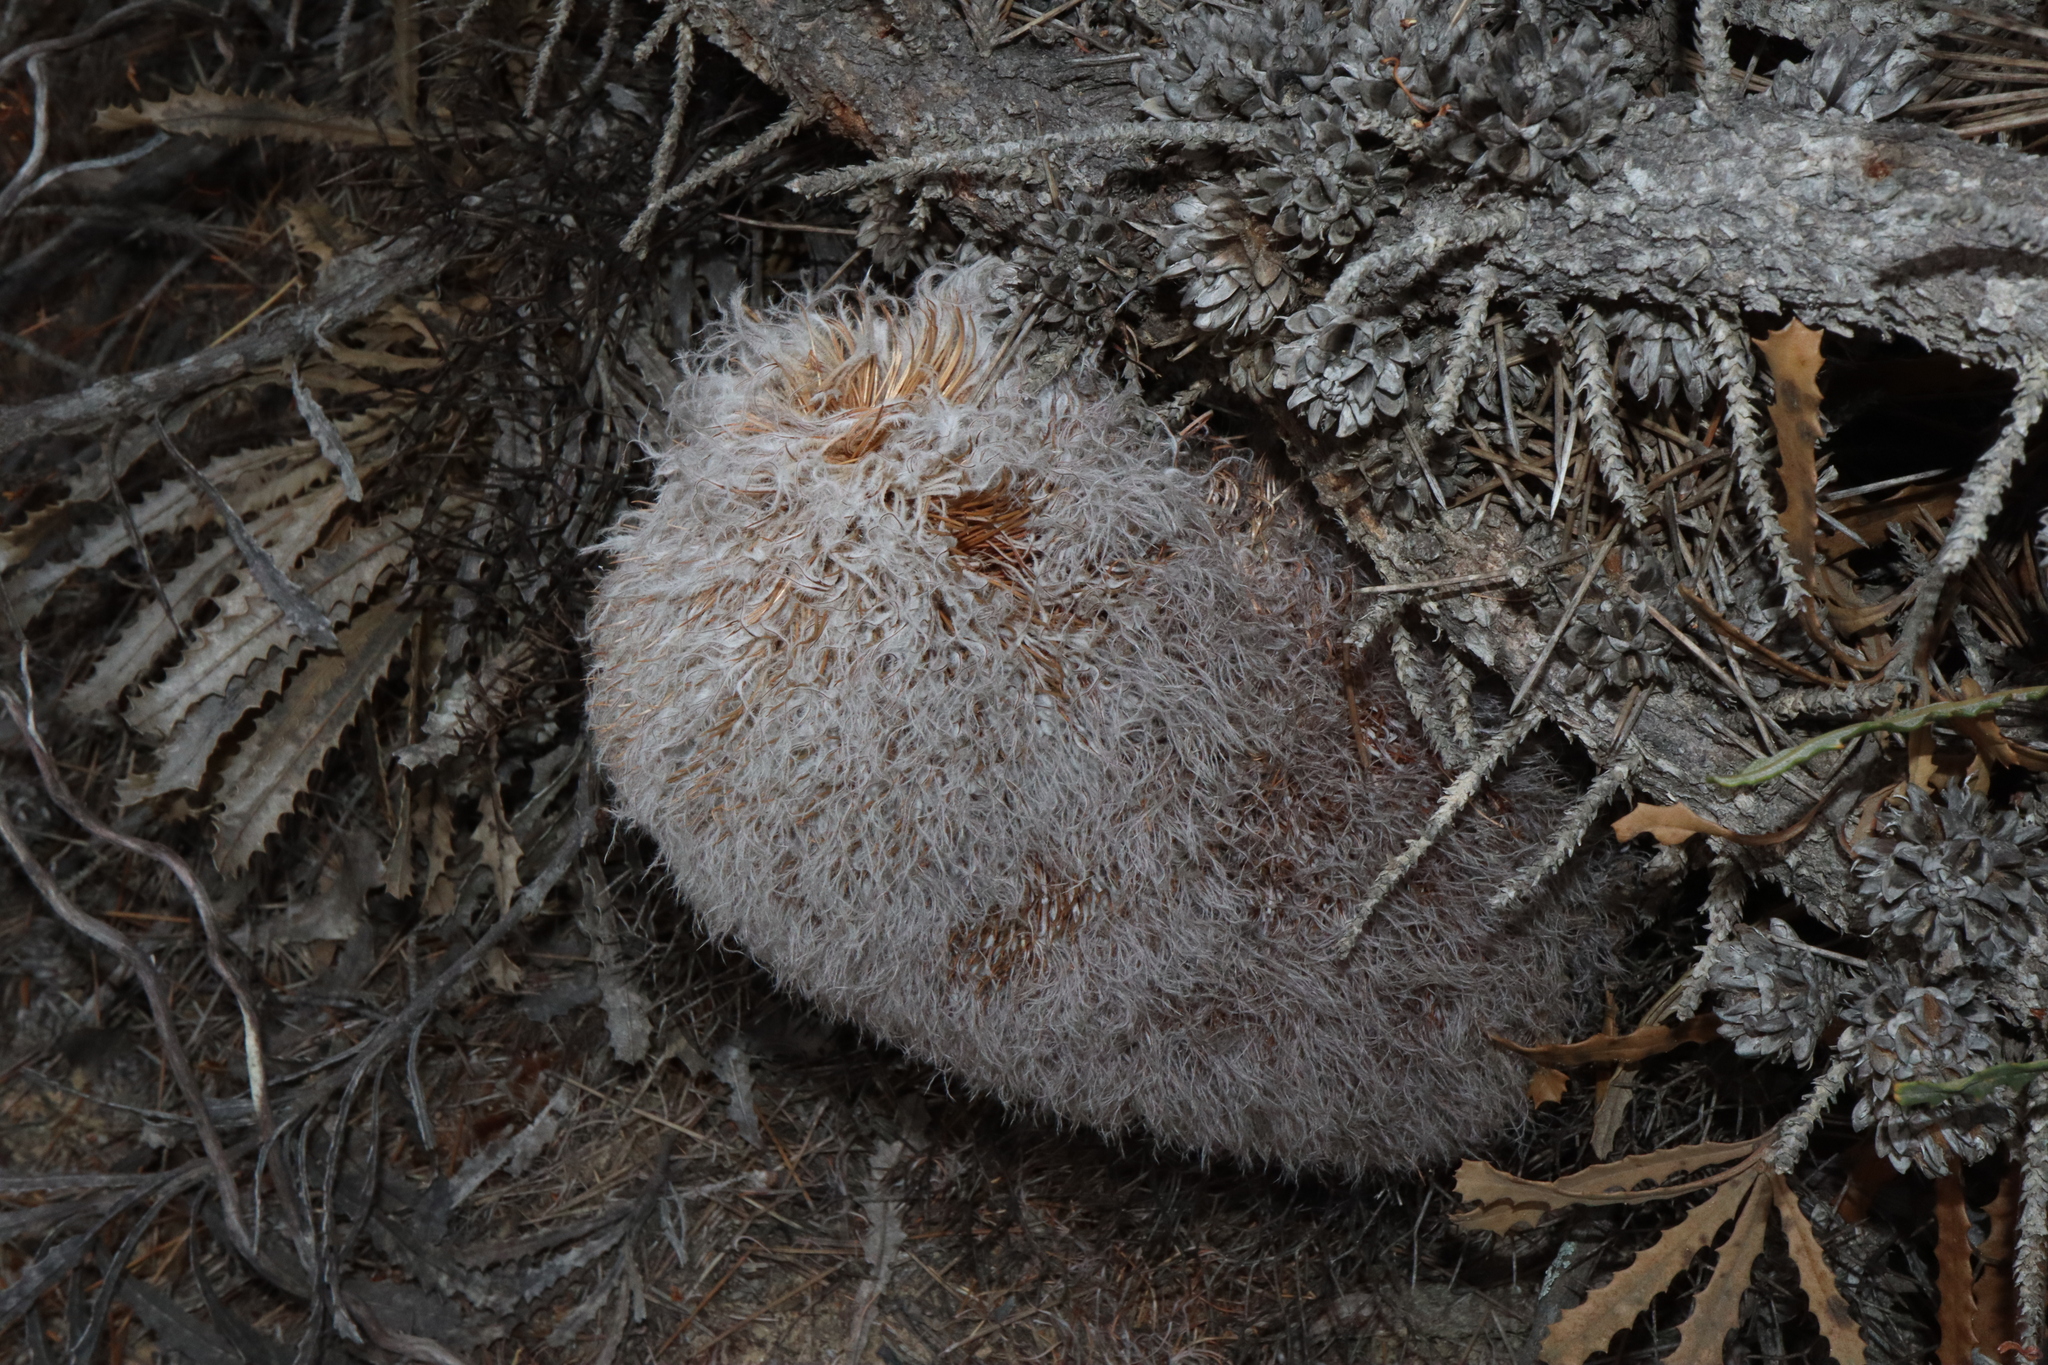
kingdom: Plantae
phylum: Tracheophyta
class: Magnoliopsida
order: Proteales
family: Proteaceae
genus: Banksia
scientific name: Banksia baueri
